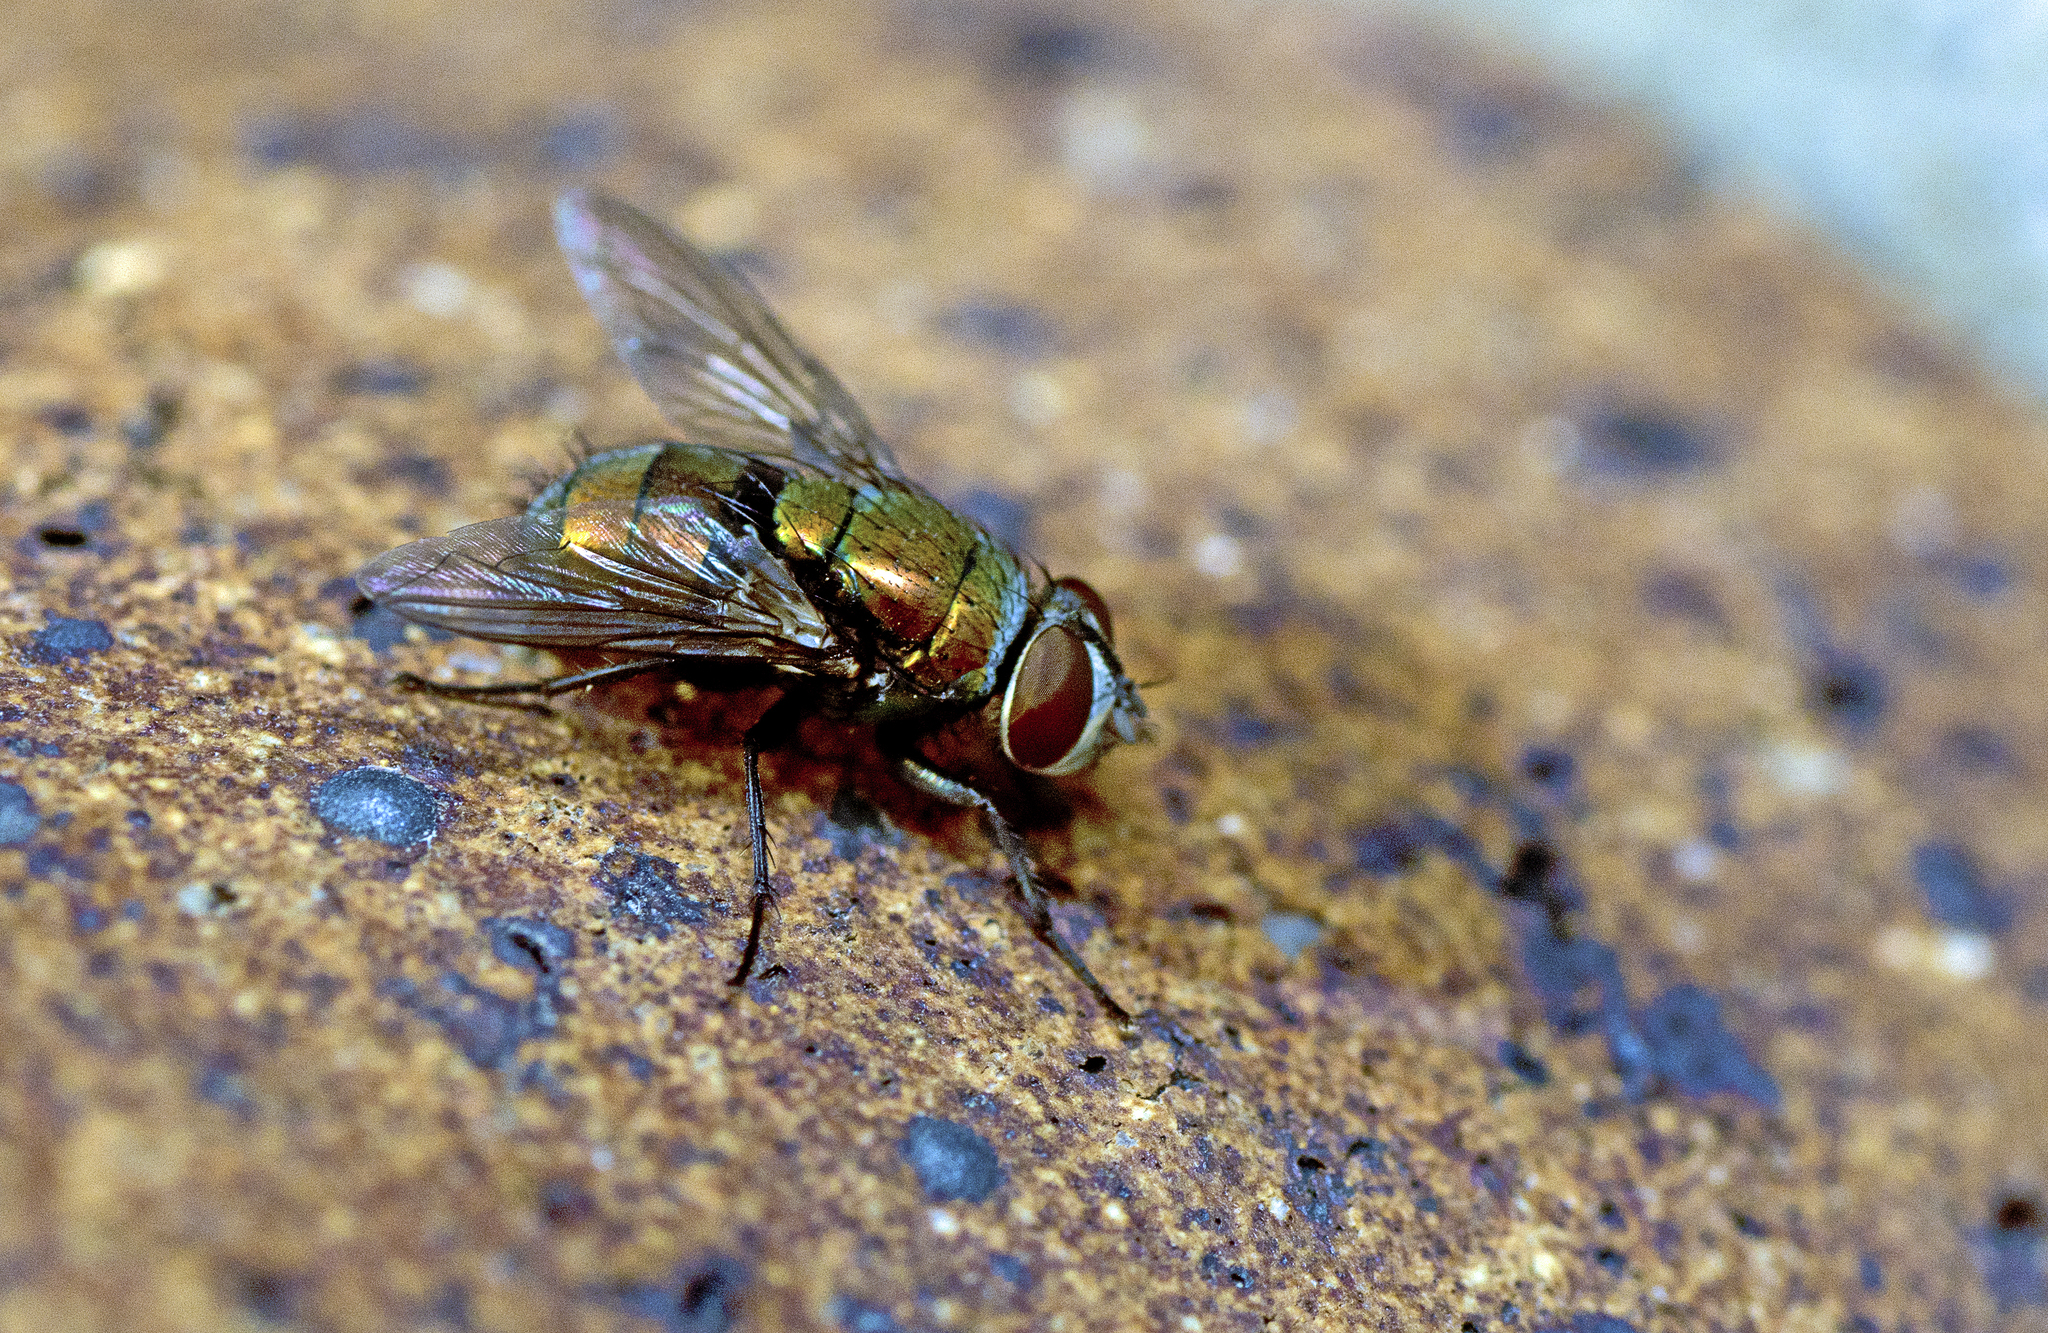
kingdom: Animalia
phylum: Arthropoda
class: Insecta
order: Diptera
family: Calliphoridae
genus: Lucilia
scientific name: Lucilia cuprina
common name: Sheep blow fly
